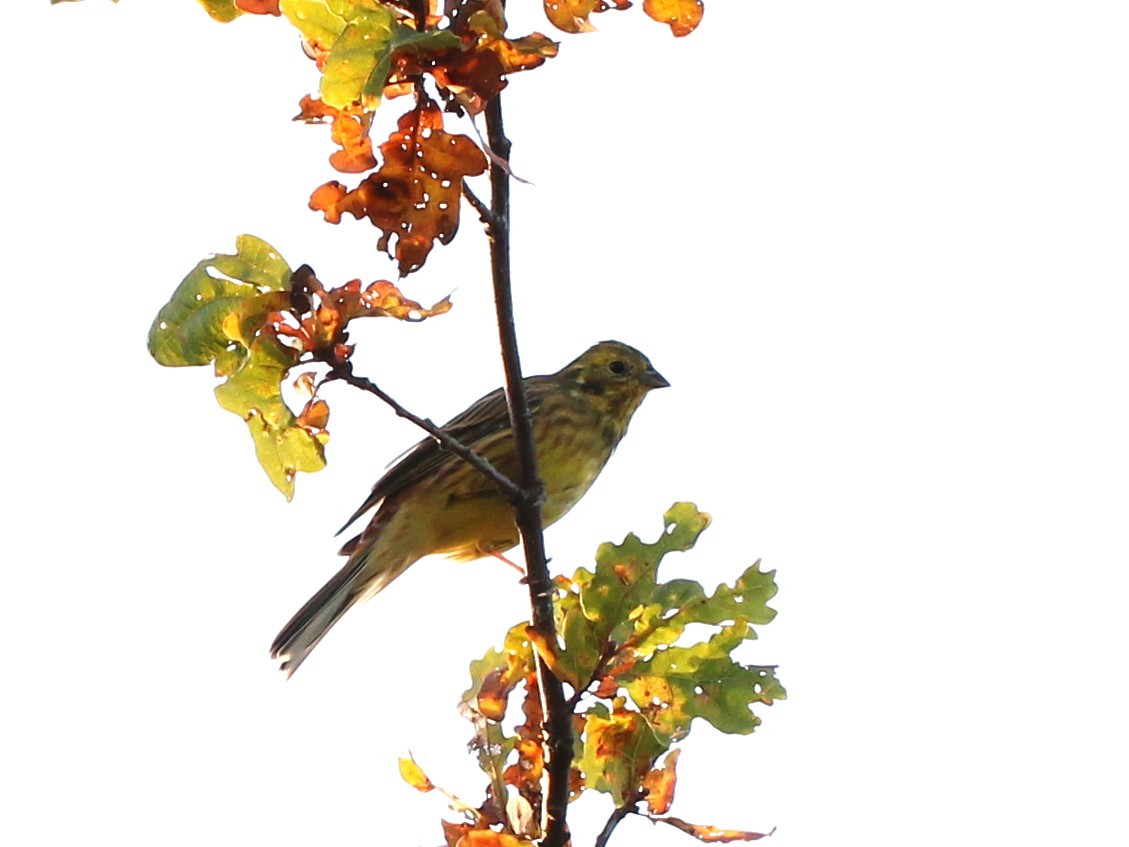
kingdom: Animalia
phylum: Chordata
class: Aves
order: Passeriformes
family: Emberizidae
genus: Emberiza
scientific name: Emberiza citrinella
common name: Yellowhammer
